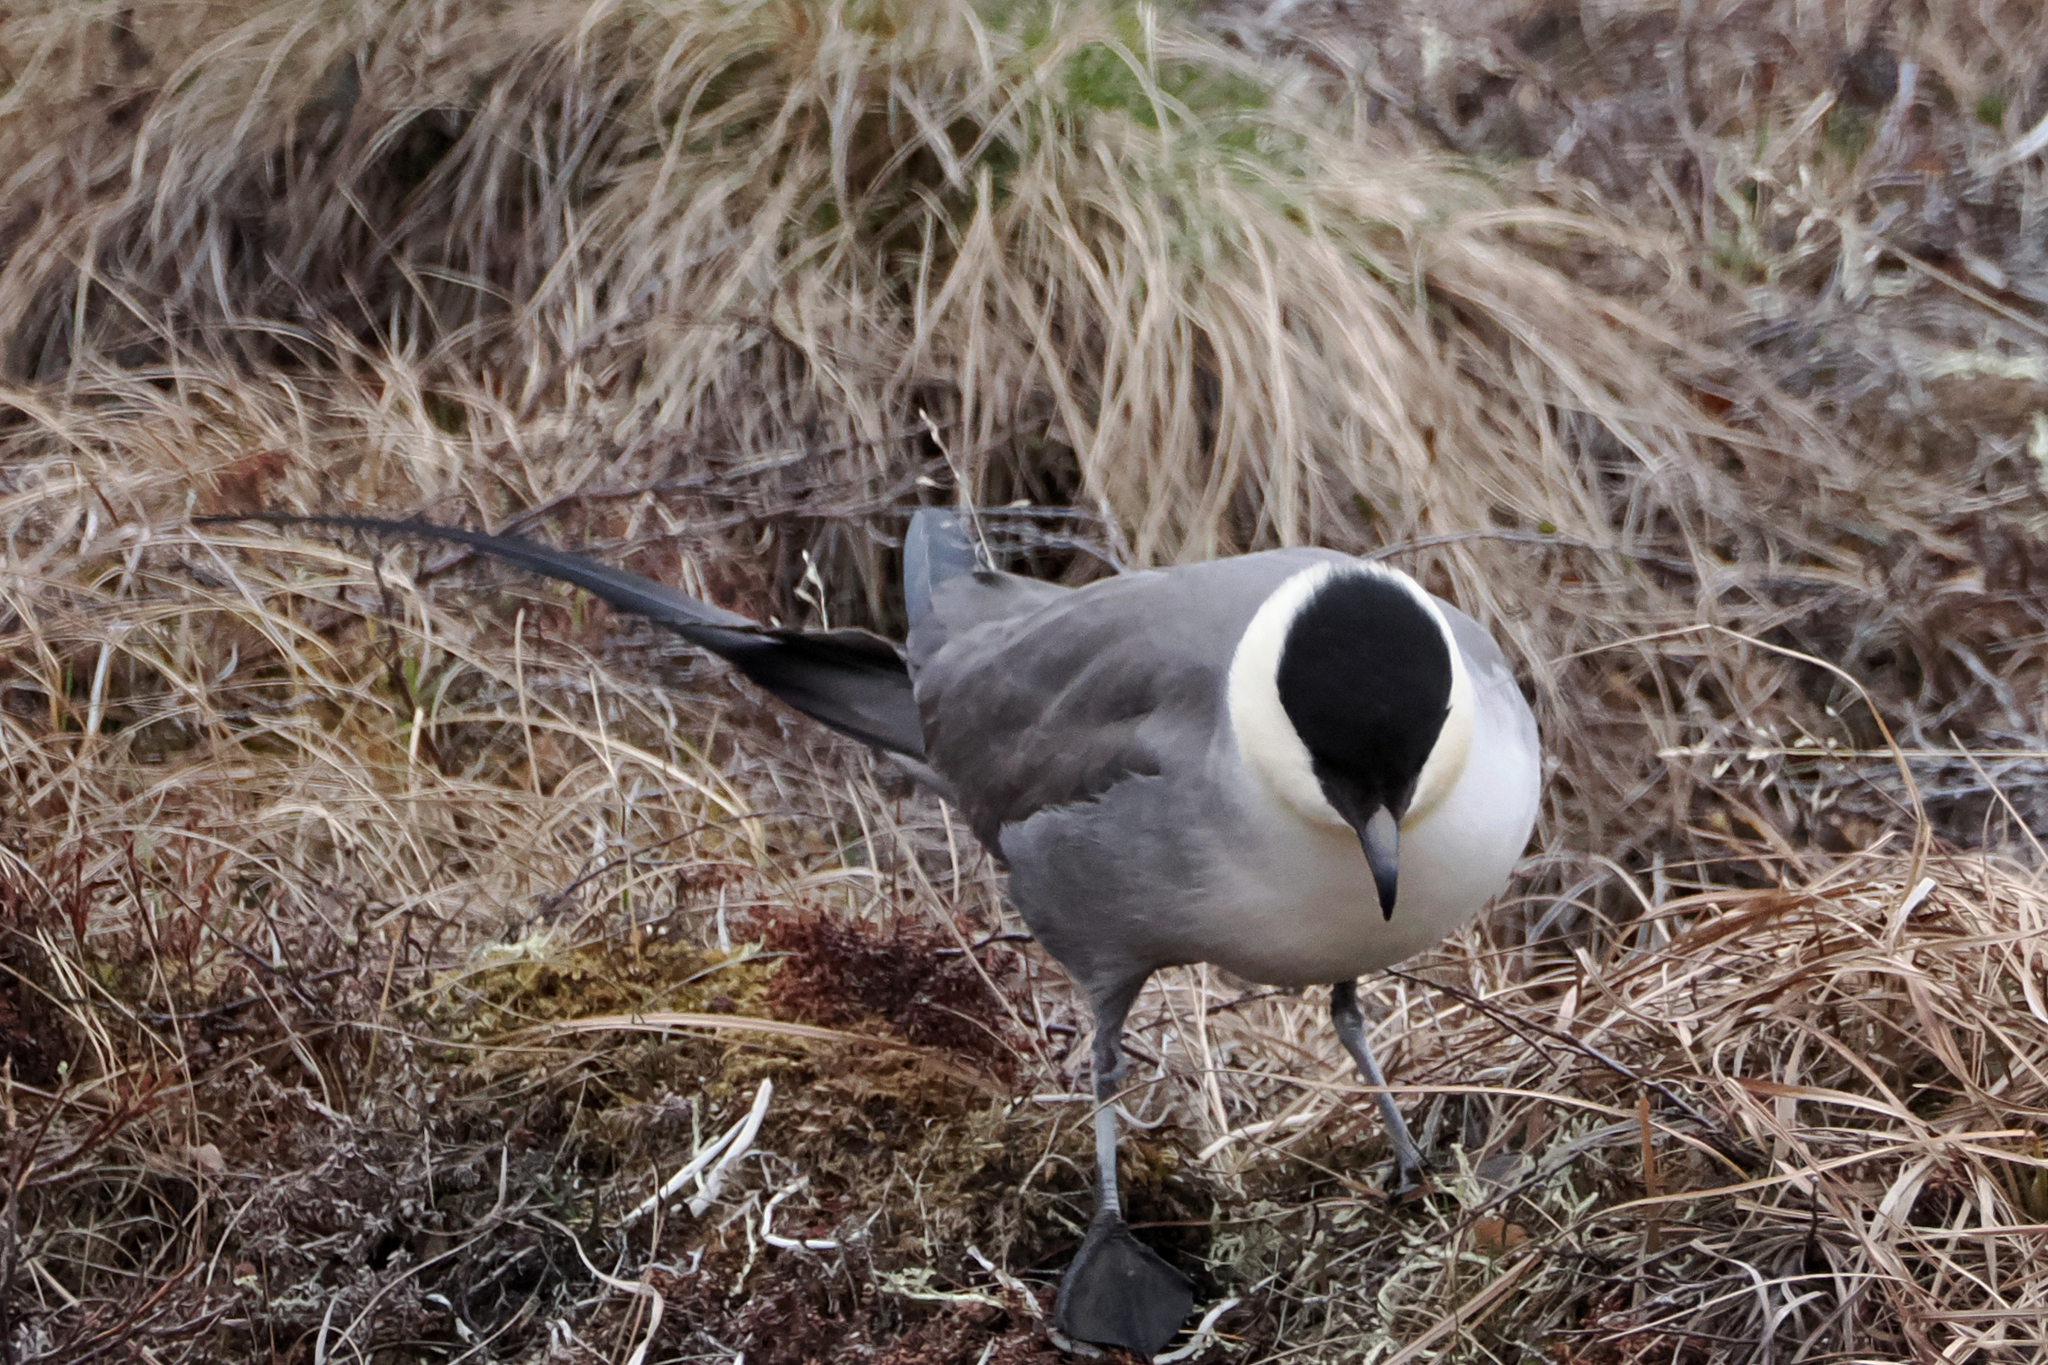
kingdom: Animalia
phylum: Chordata
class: Aves
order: Charadriiformes
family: Stercorariidae
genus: Stercorarius
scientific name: Stercorarius longicaudus
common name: Long-tailed jaeger
